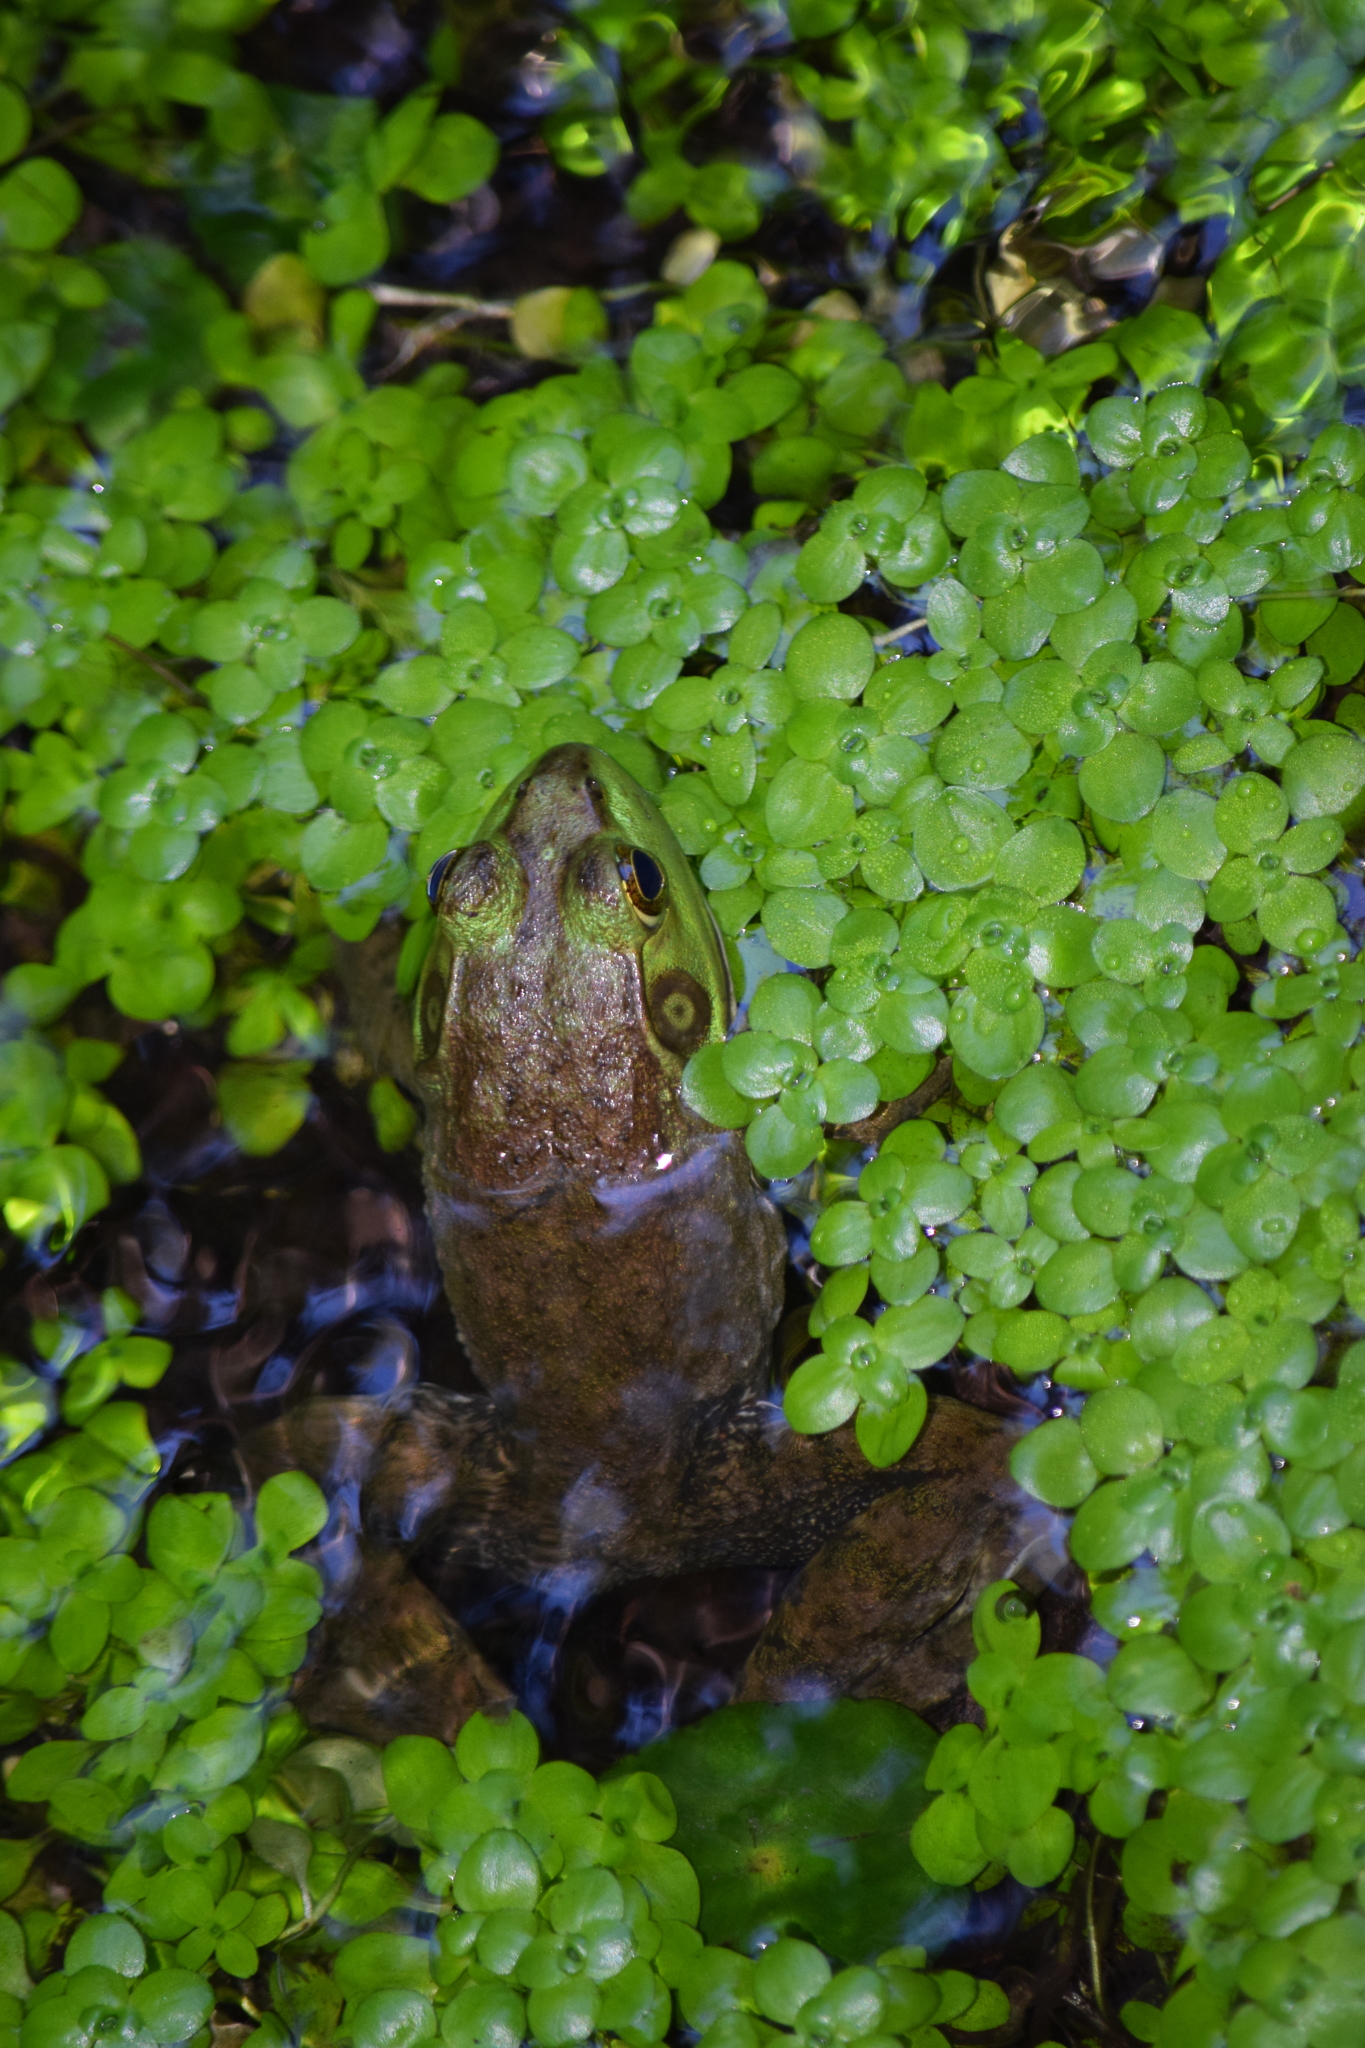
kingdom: Animalia
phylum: Chordata
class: Amphibia
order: Anura
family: Ranidae
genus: Lithobates
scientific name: Lithobates catesbeianus
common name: American bullfrog
